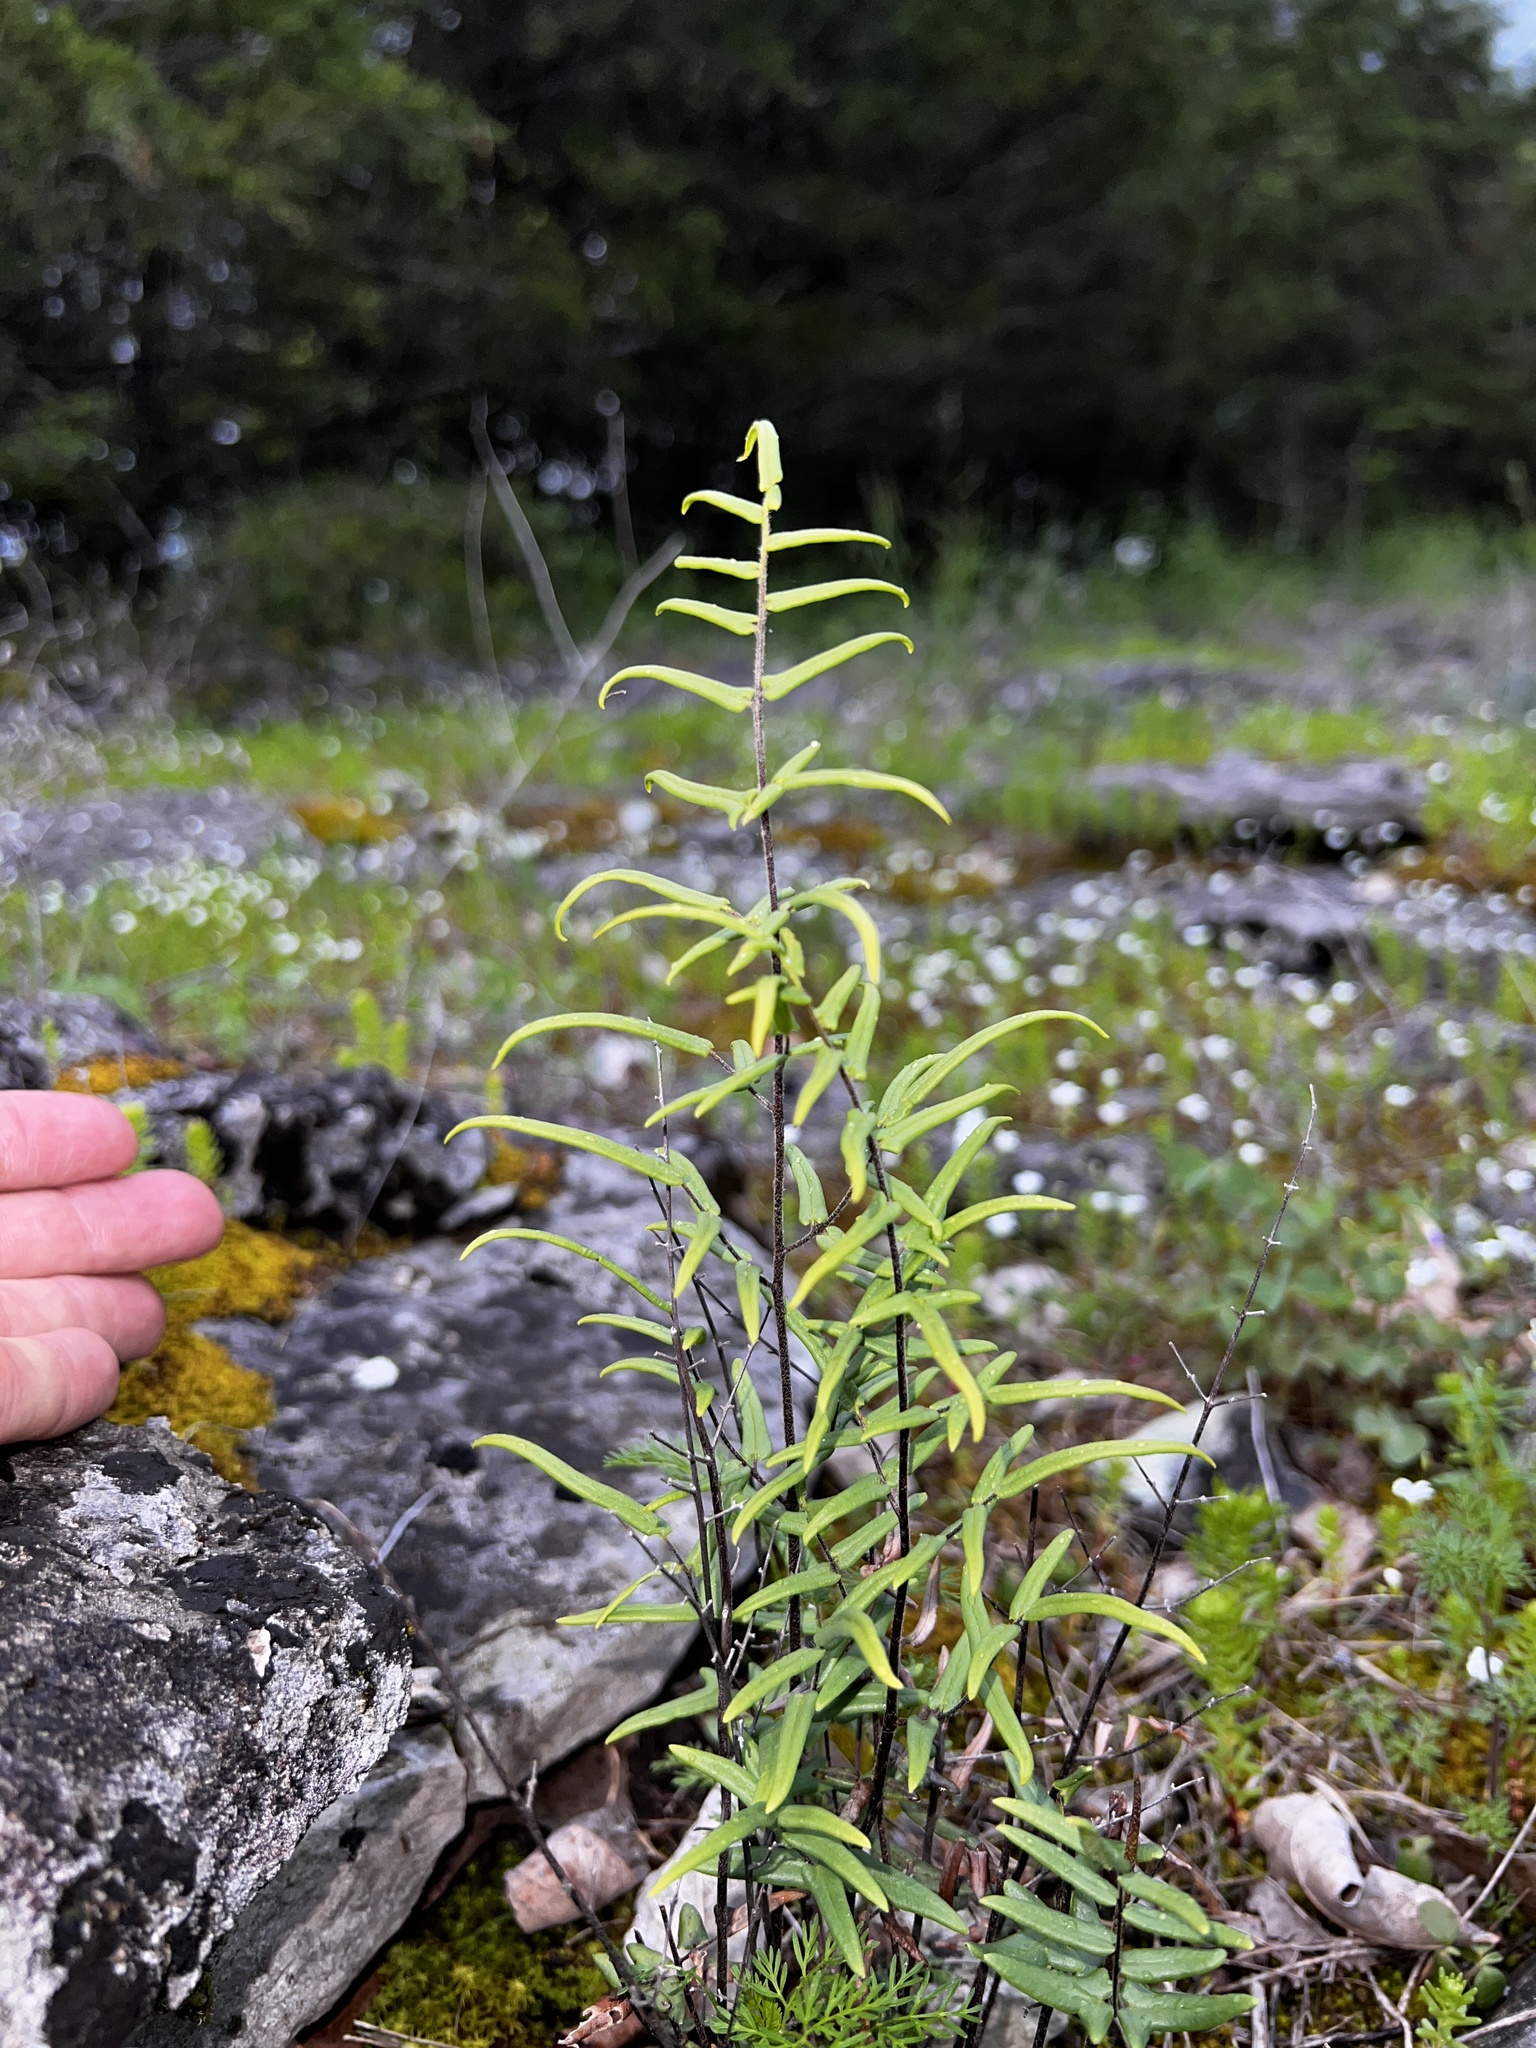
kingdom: Plantae
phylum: Tracheophyta
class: Polypodiopsida
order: Polypodiales
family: Pteridaceae
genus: Pellaea
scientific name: Pellaea atropurpurea
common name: Hairy cliffbrake
